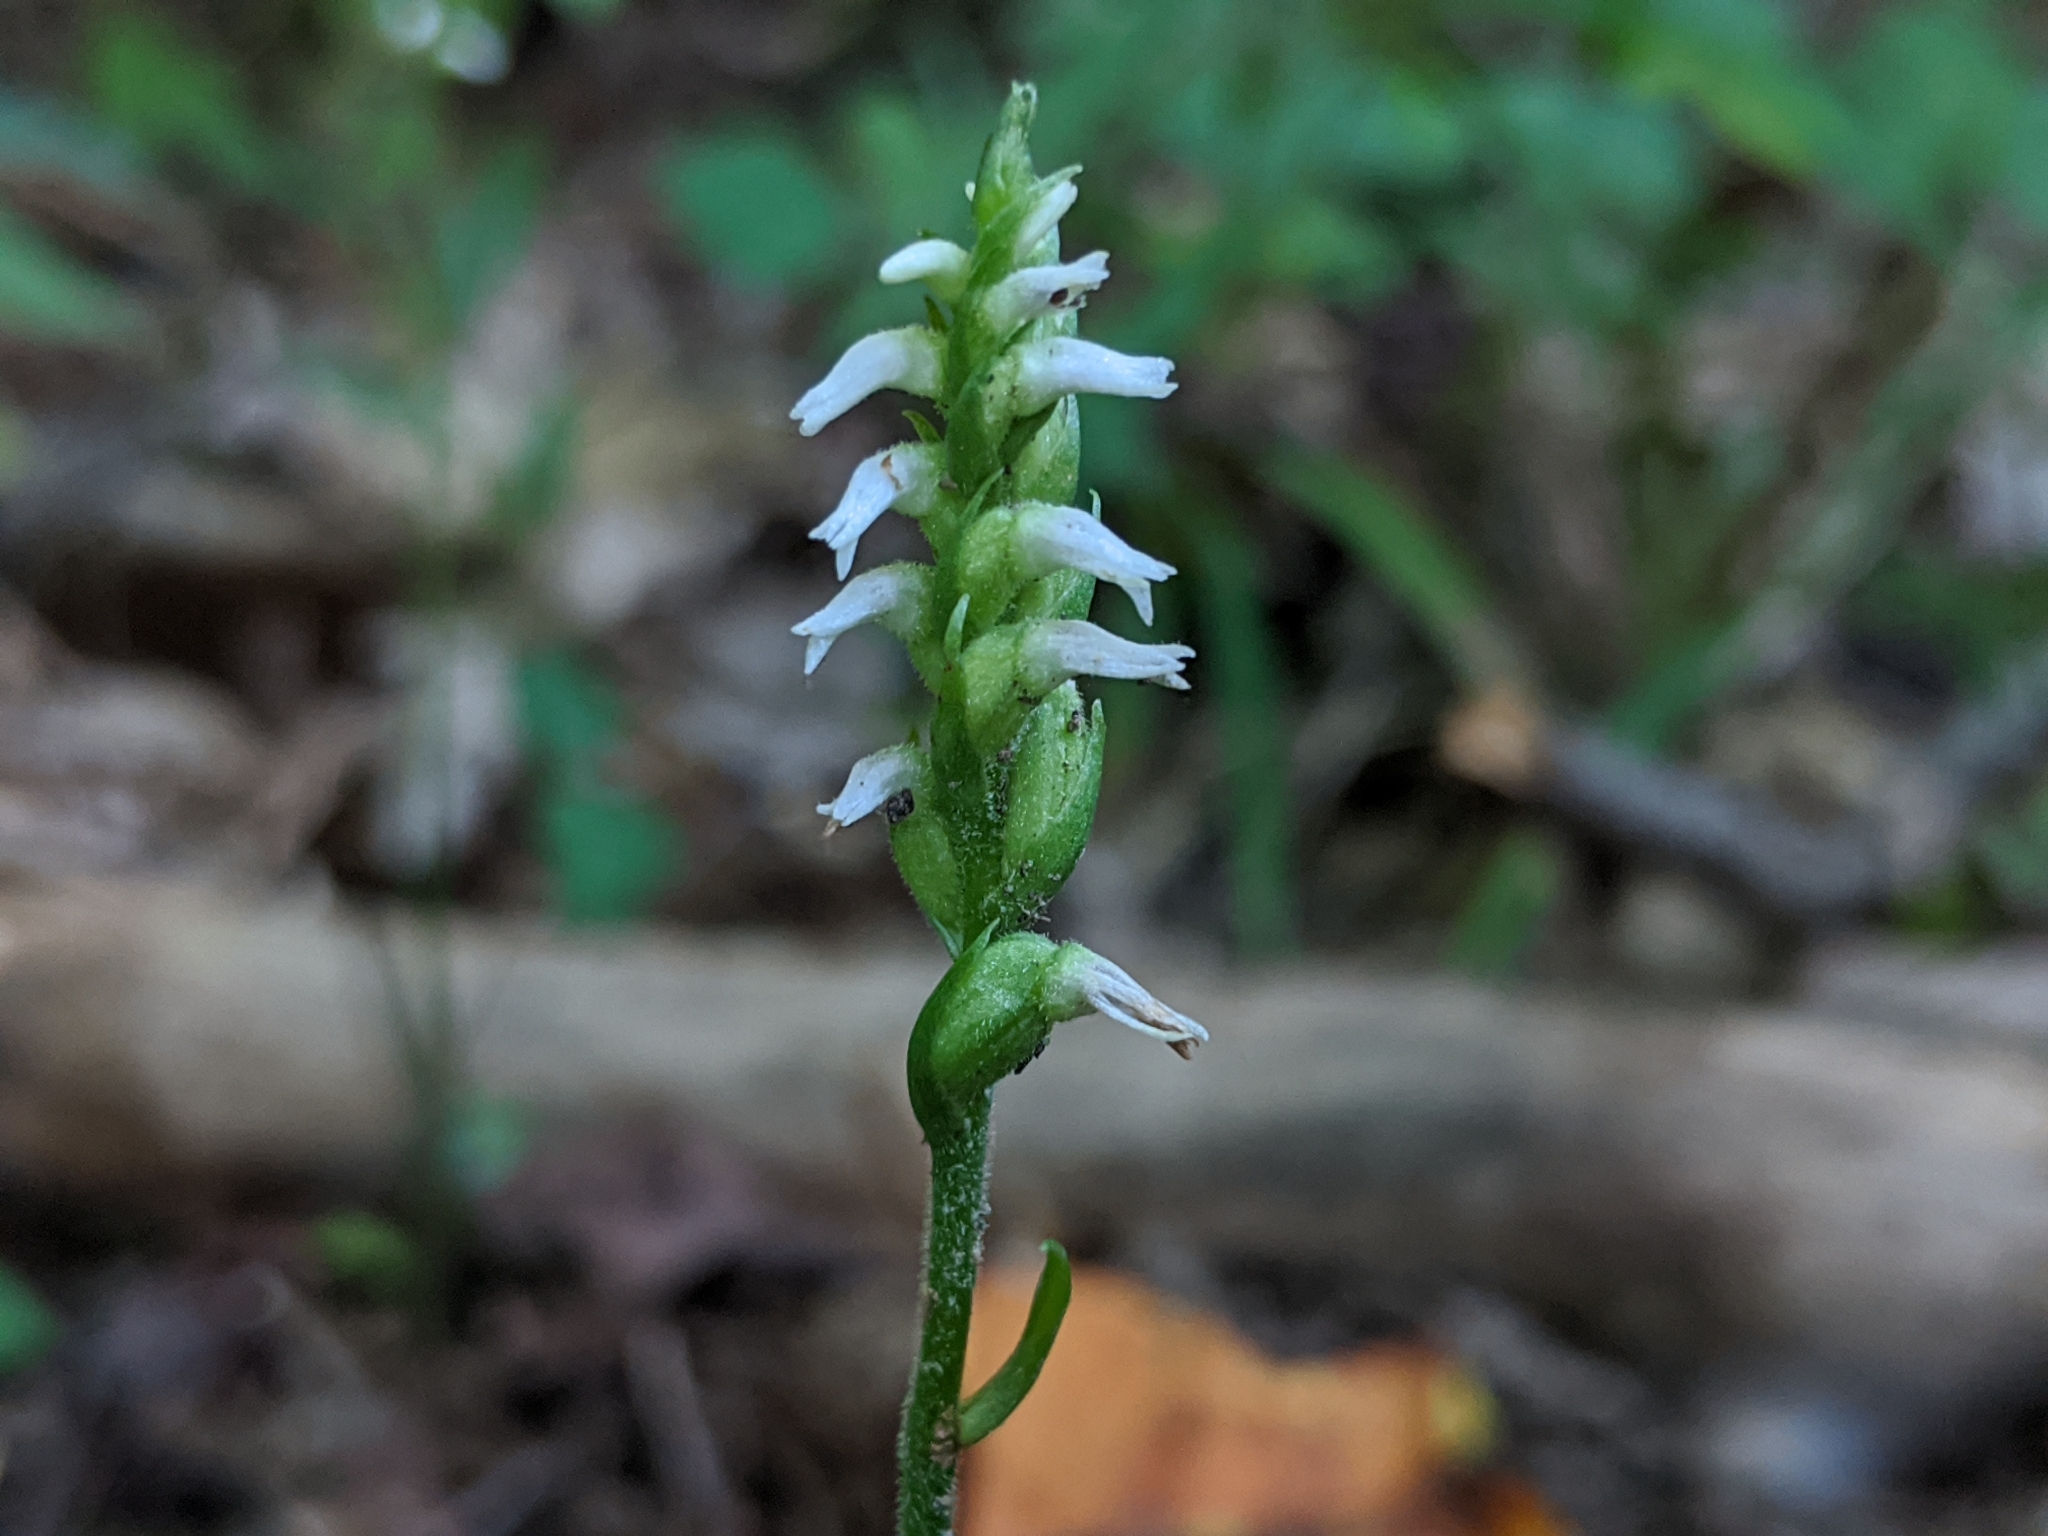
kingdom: Plantae
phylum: Tracheophyta
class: Liliopsida
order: Asparagales
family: Orchidaceae
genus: Spiranthes
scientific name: Spiranthes ovalis
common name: October ladies'-tresses
